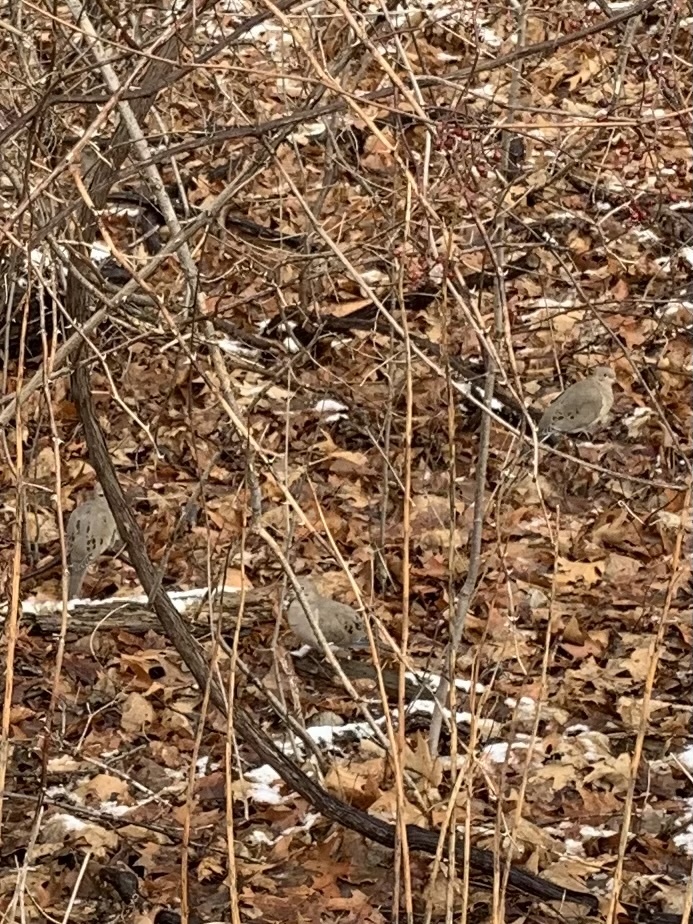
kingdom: Animalia
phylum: Chordata
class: Aves
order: Columbiformes
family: Columbidae
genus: Zenaida
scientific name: Zenaida macroura
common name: Mourning dove
